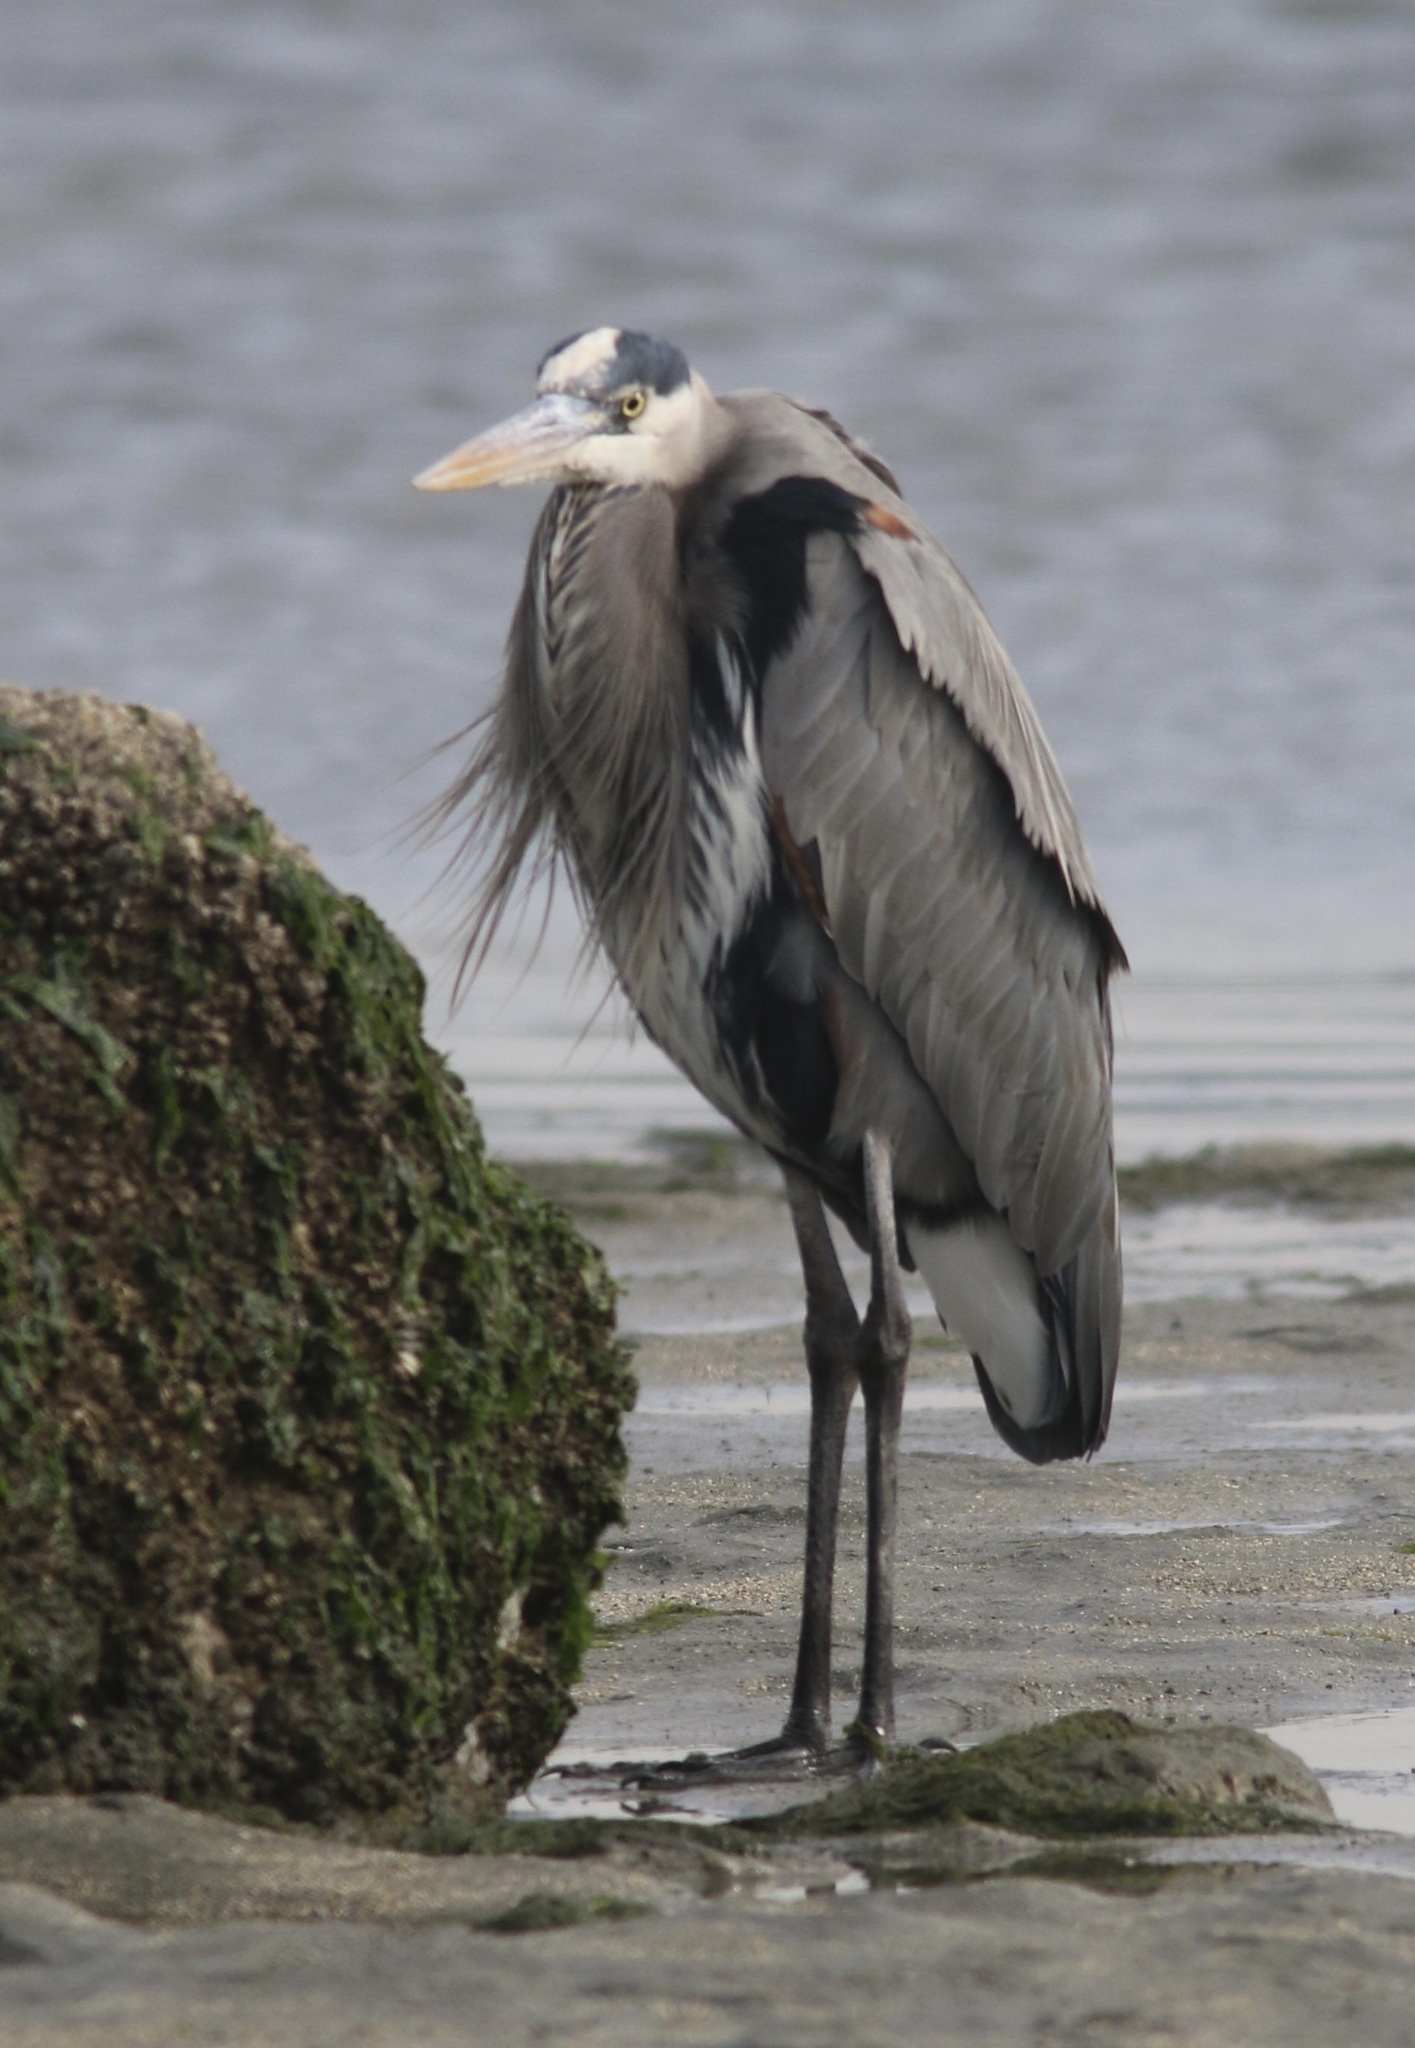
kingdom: Animalia
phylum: Chordata
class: Aves
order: Pelecaniformes
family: Ardeidae
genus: Ardea
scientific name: Ardea herodias
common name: Great blue heron
